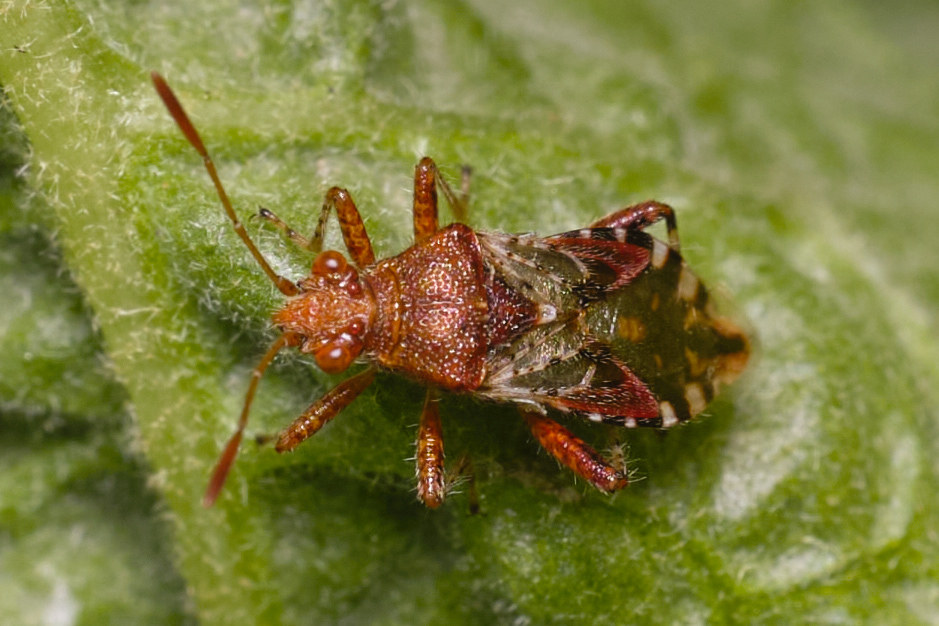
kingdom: Animalia
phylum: Arthropoda
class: Insecta
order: Hemiptera
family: Rhopalidae
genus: Rhopalus
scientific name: Rhopalus subrufus
